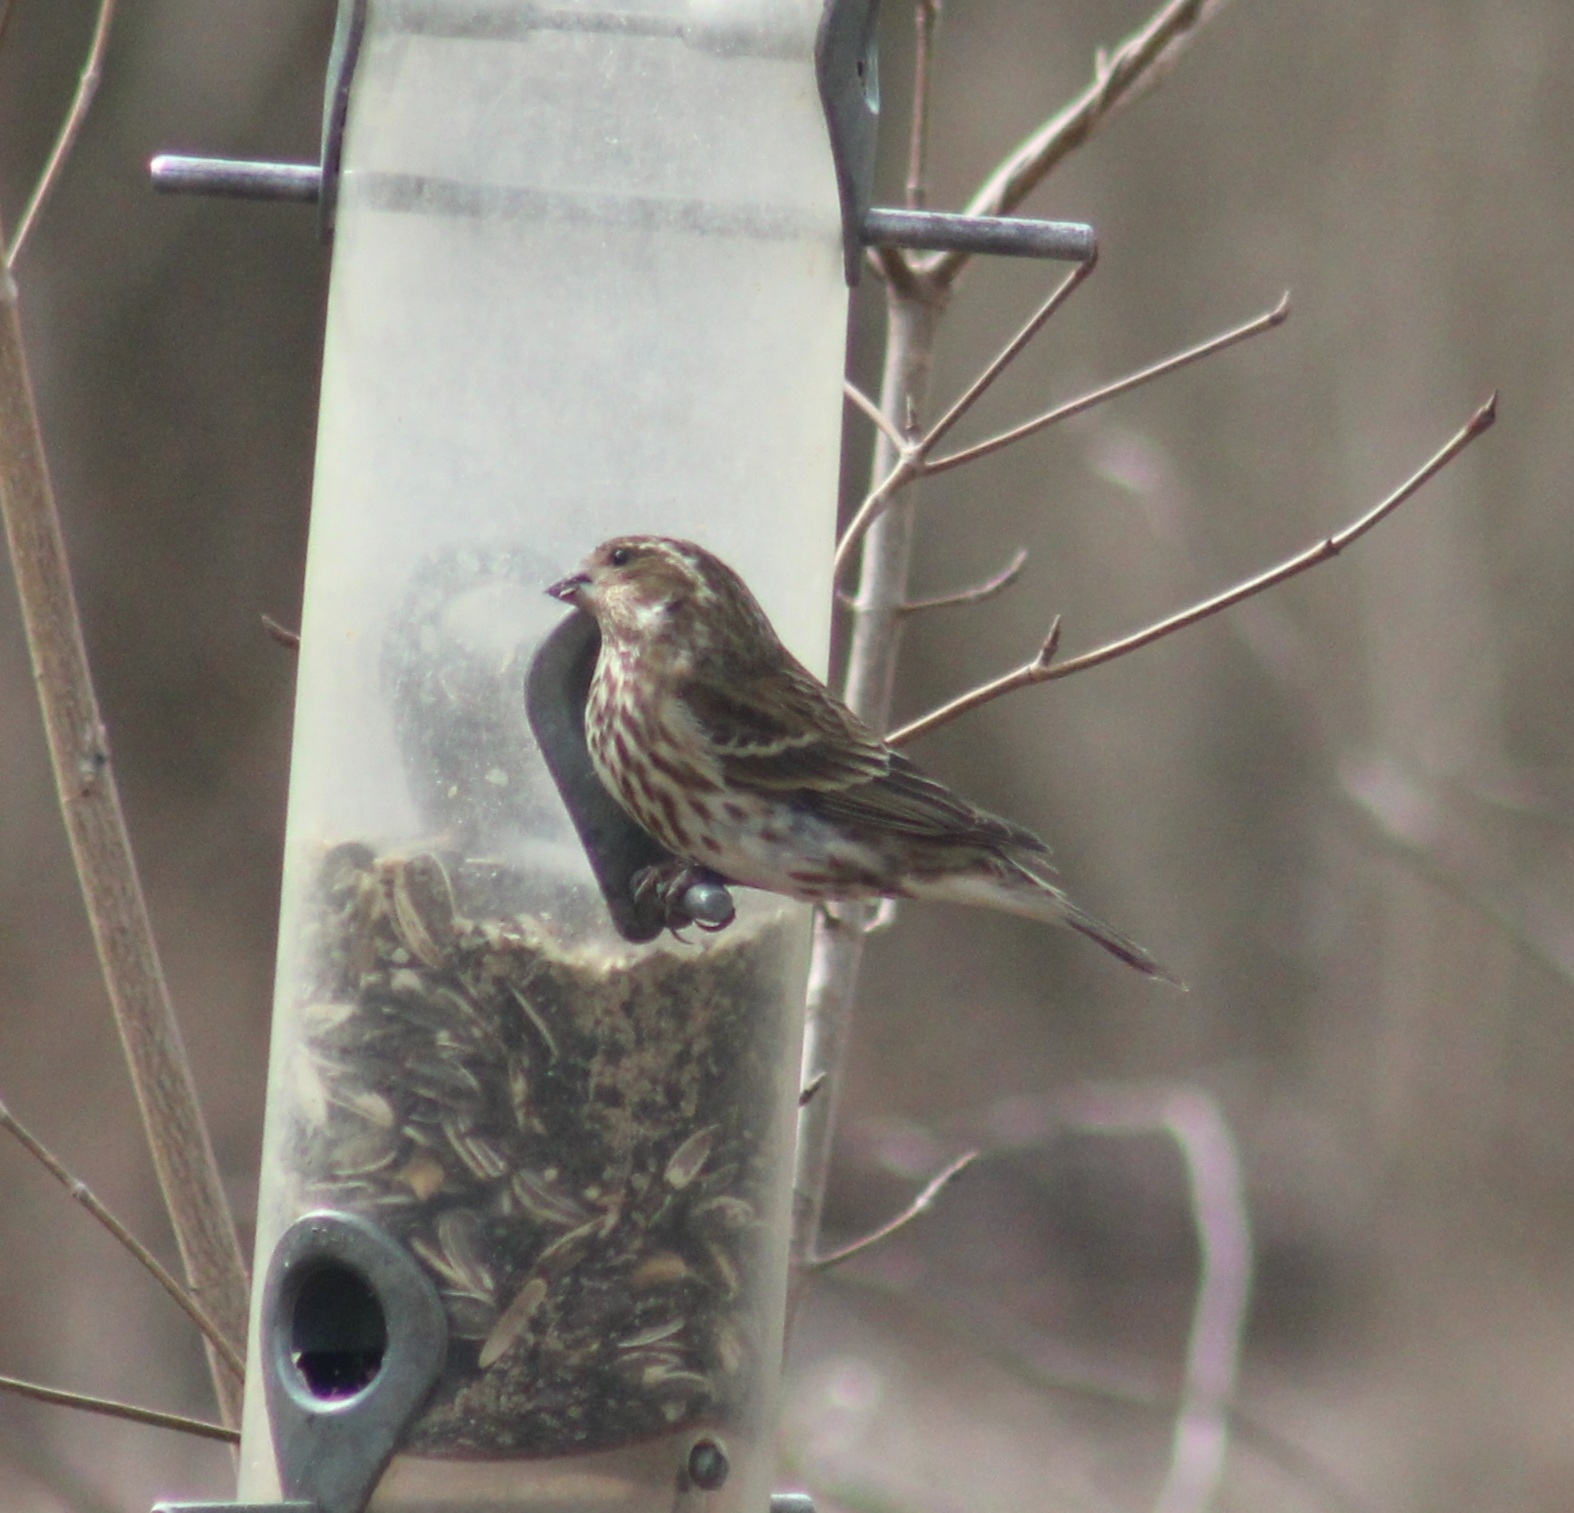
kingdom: Animalia
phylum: Chordata
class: Aves
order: Passeriformes
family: Fringillidae
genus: Haemorhous
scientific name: Haemorhous purpureus
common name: Purple finch
